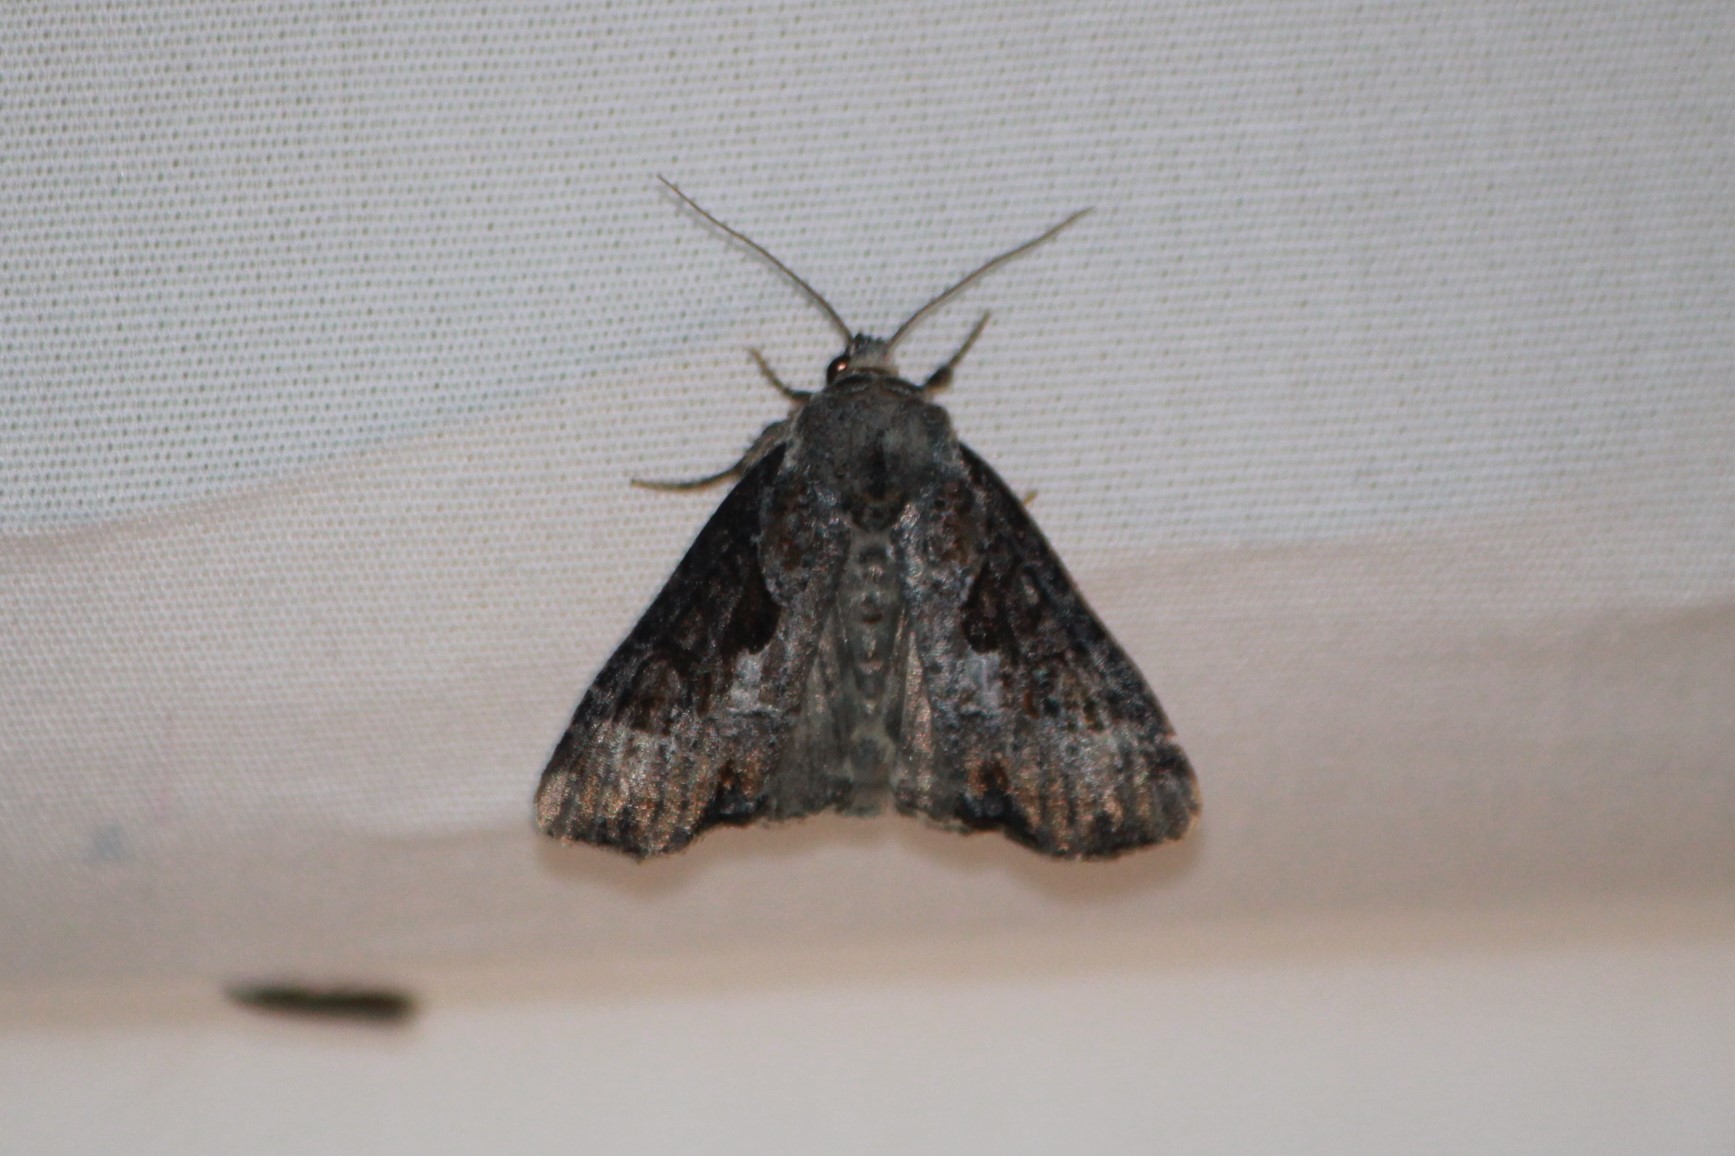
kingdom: Animalia
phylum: Arthropoda
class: Insecta
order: Lepidoptera
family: Noctuidae
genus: Lateroligia
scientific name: Lateroligia ophiogramma
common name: Double lobed
